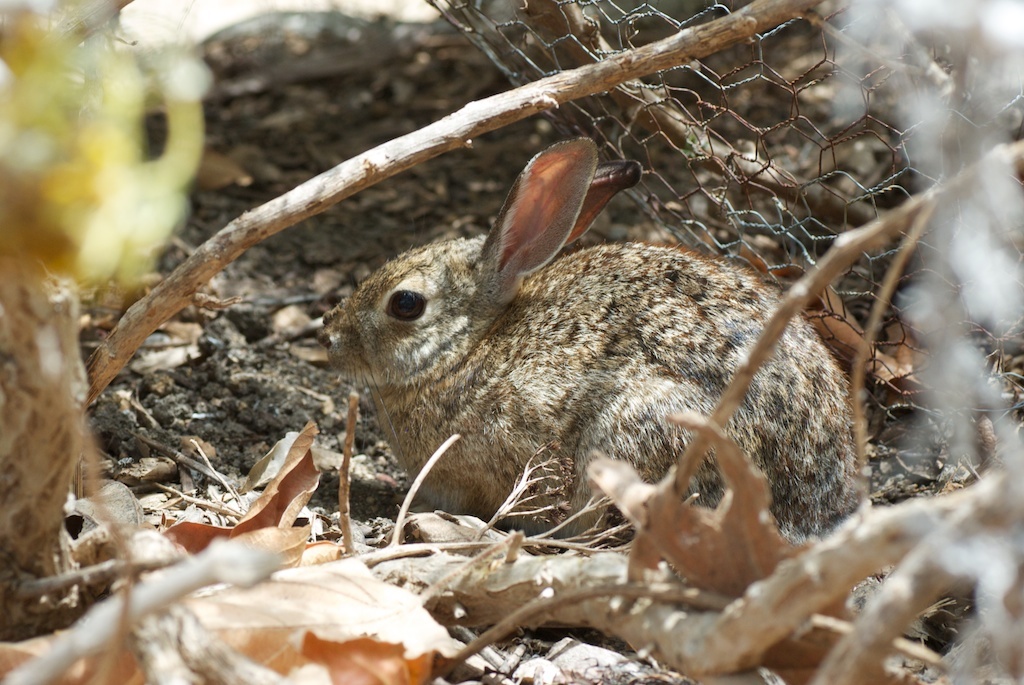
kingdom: Animalia
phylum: Chordata
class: Mammalia
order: Lagomorpha
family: Leporidae
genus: Sylvilagus
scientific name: Sylvilagus audubonii
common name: Desert cottontail
